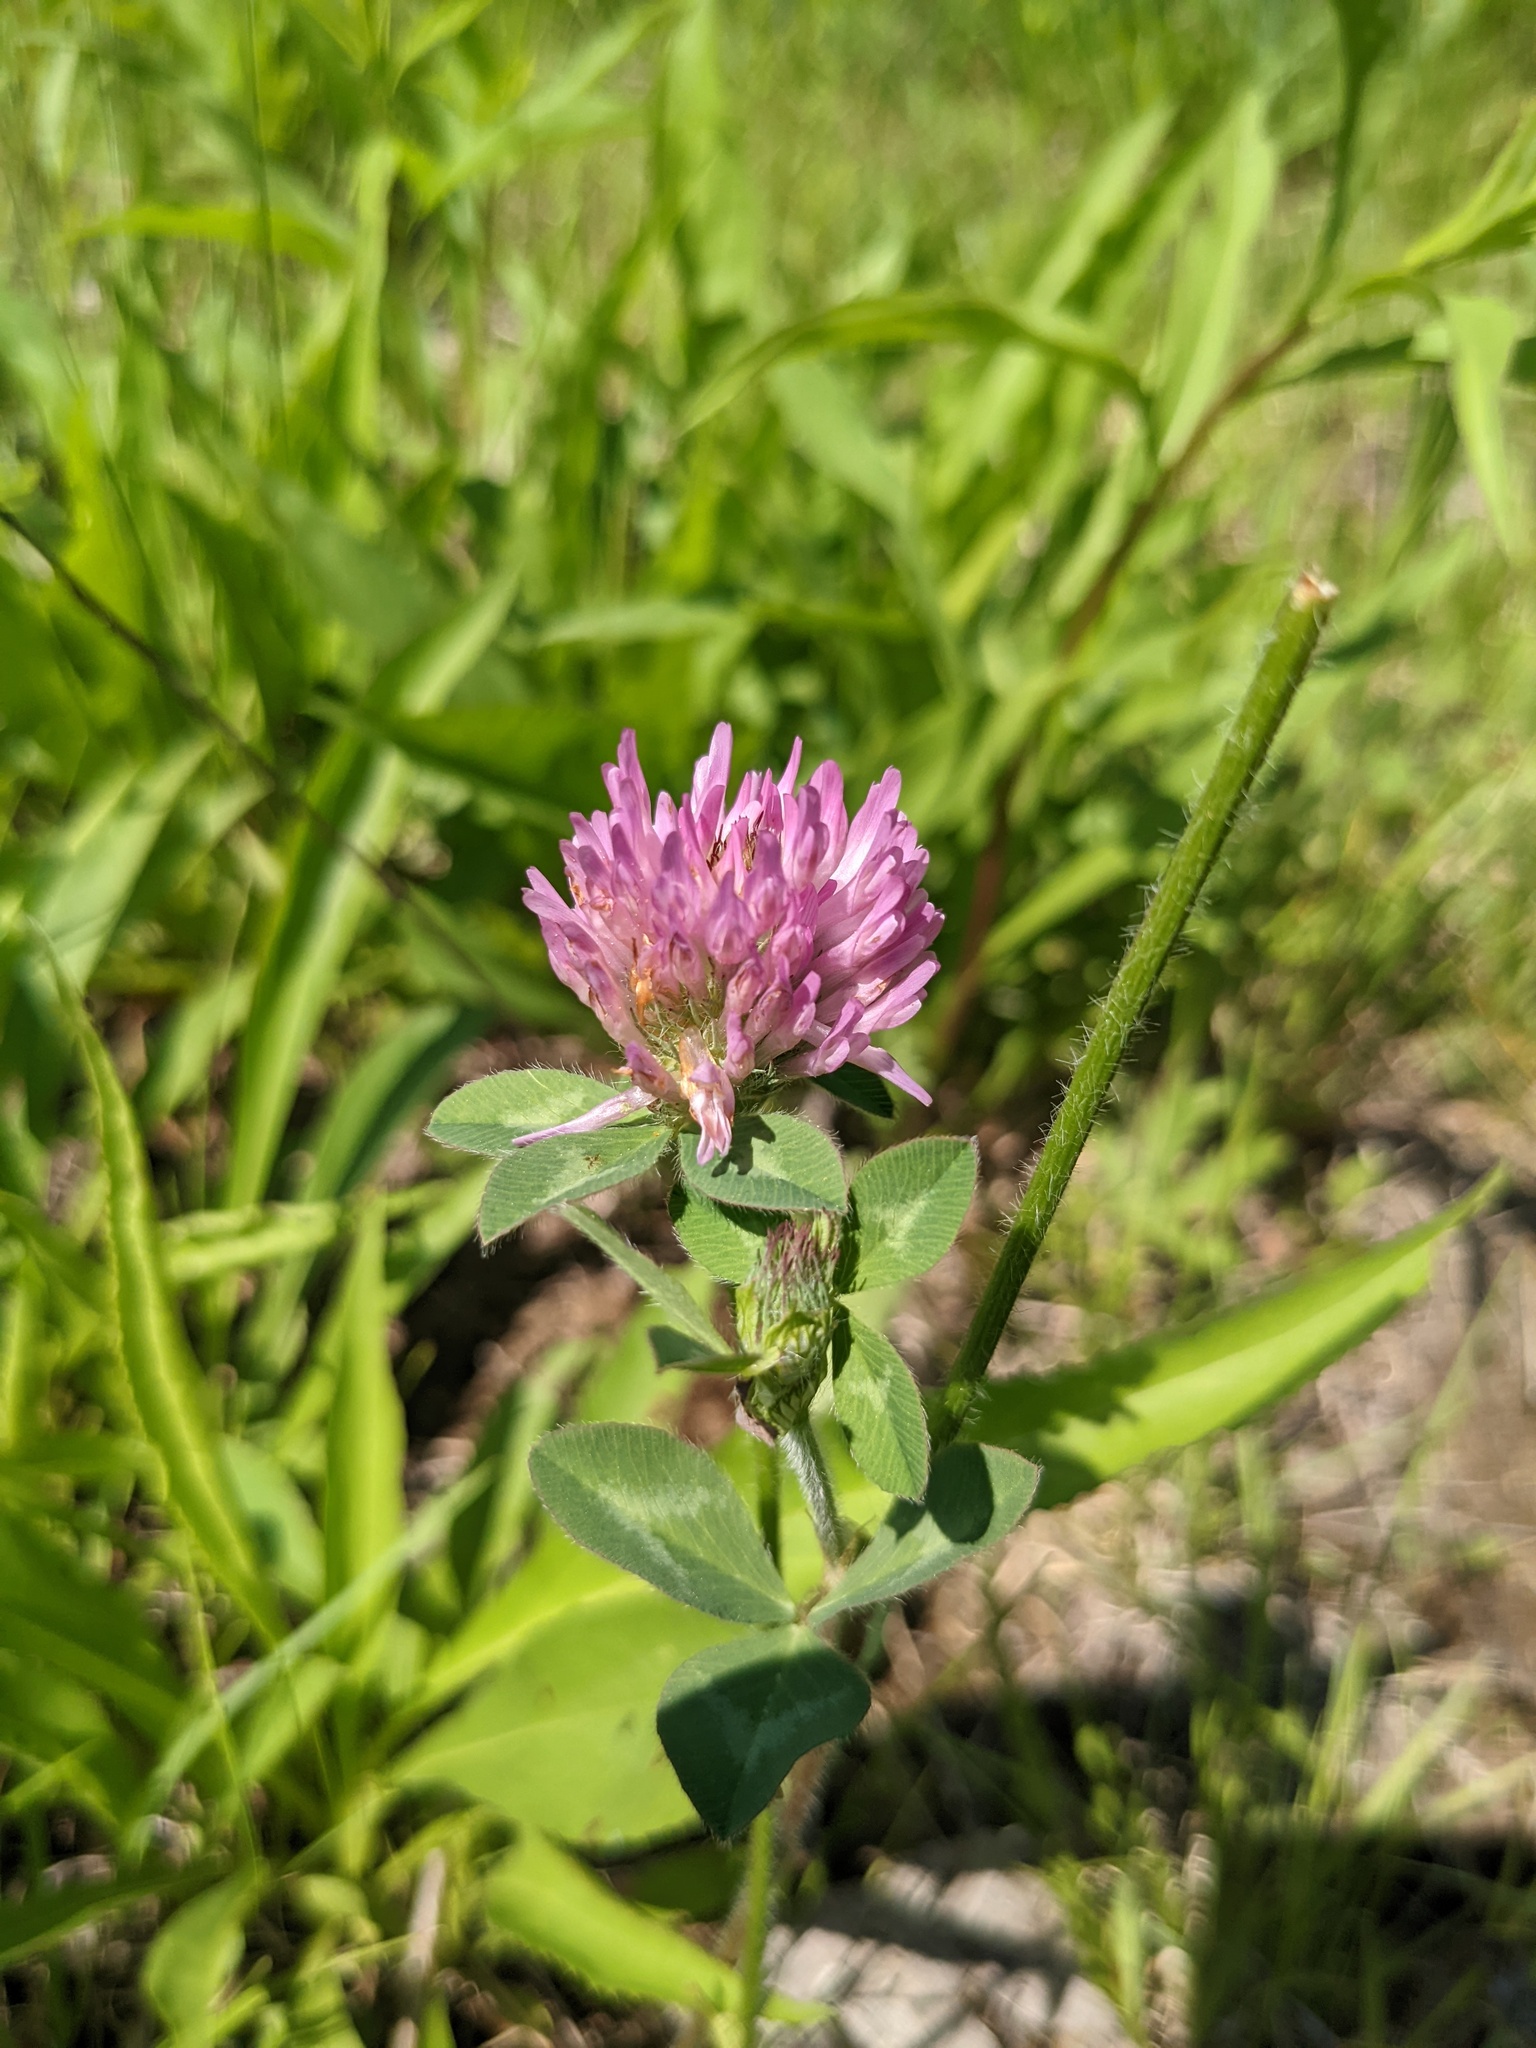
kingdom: Plantae
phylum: Tracheophyta
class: Magnoliopsida
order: Fabales
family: Fabaceae
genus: Trifolium
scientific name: Trifolium pratense
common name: Red clover
